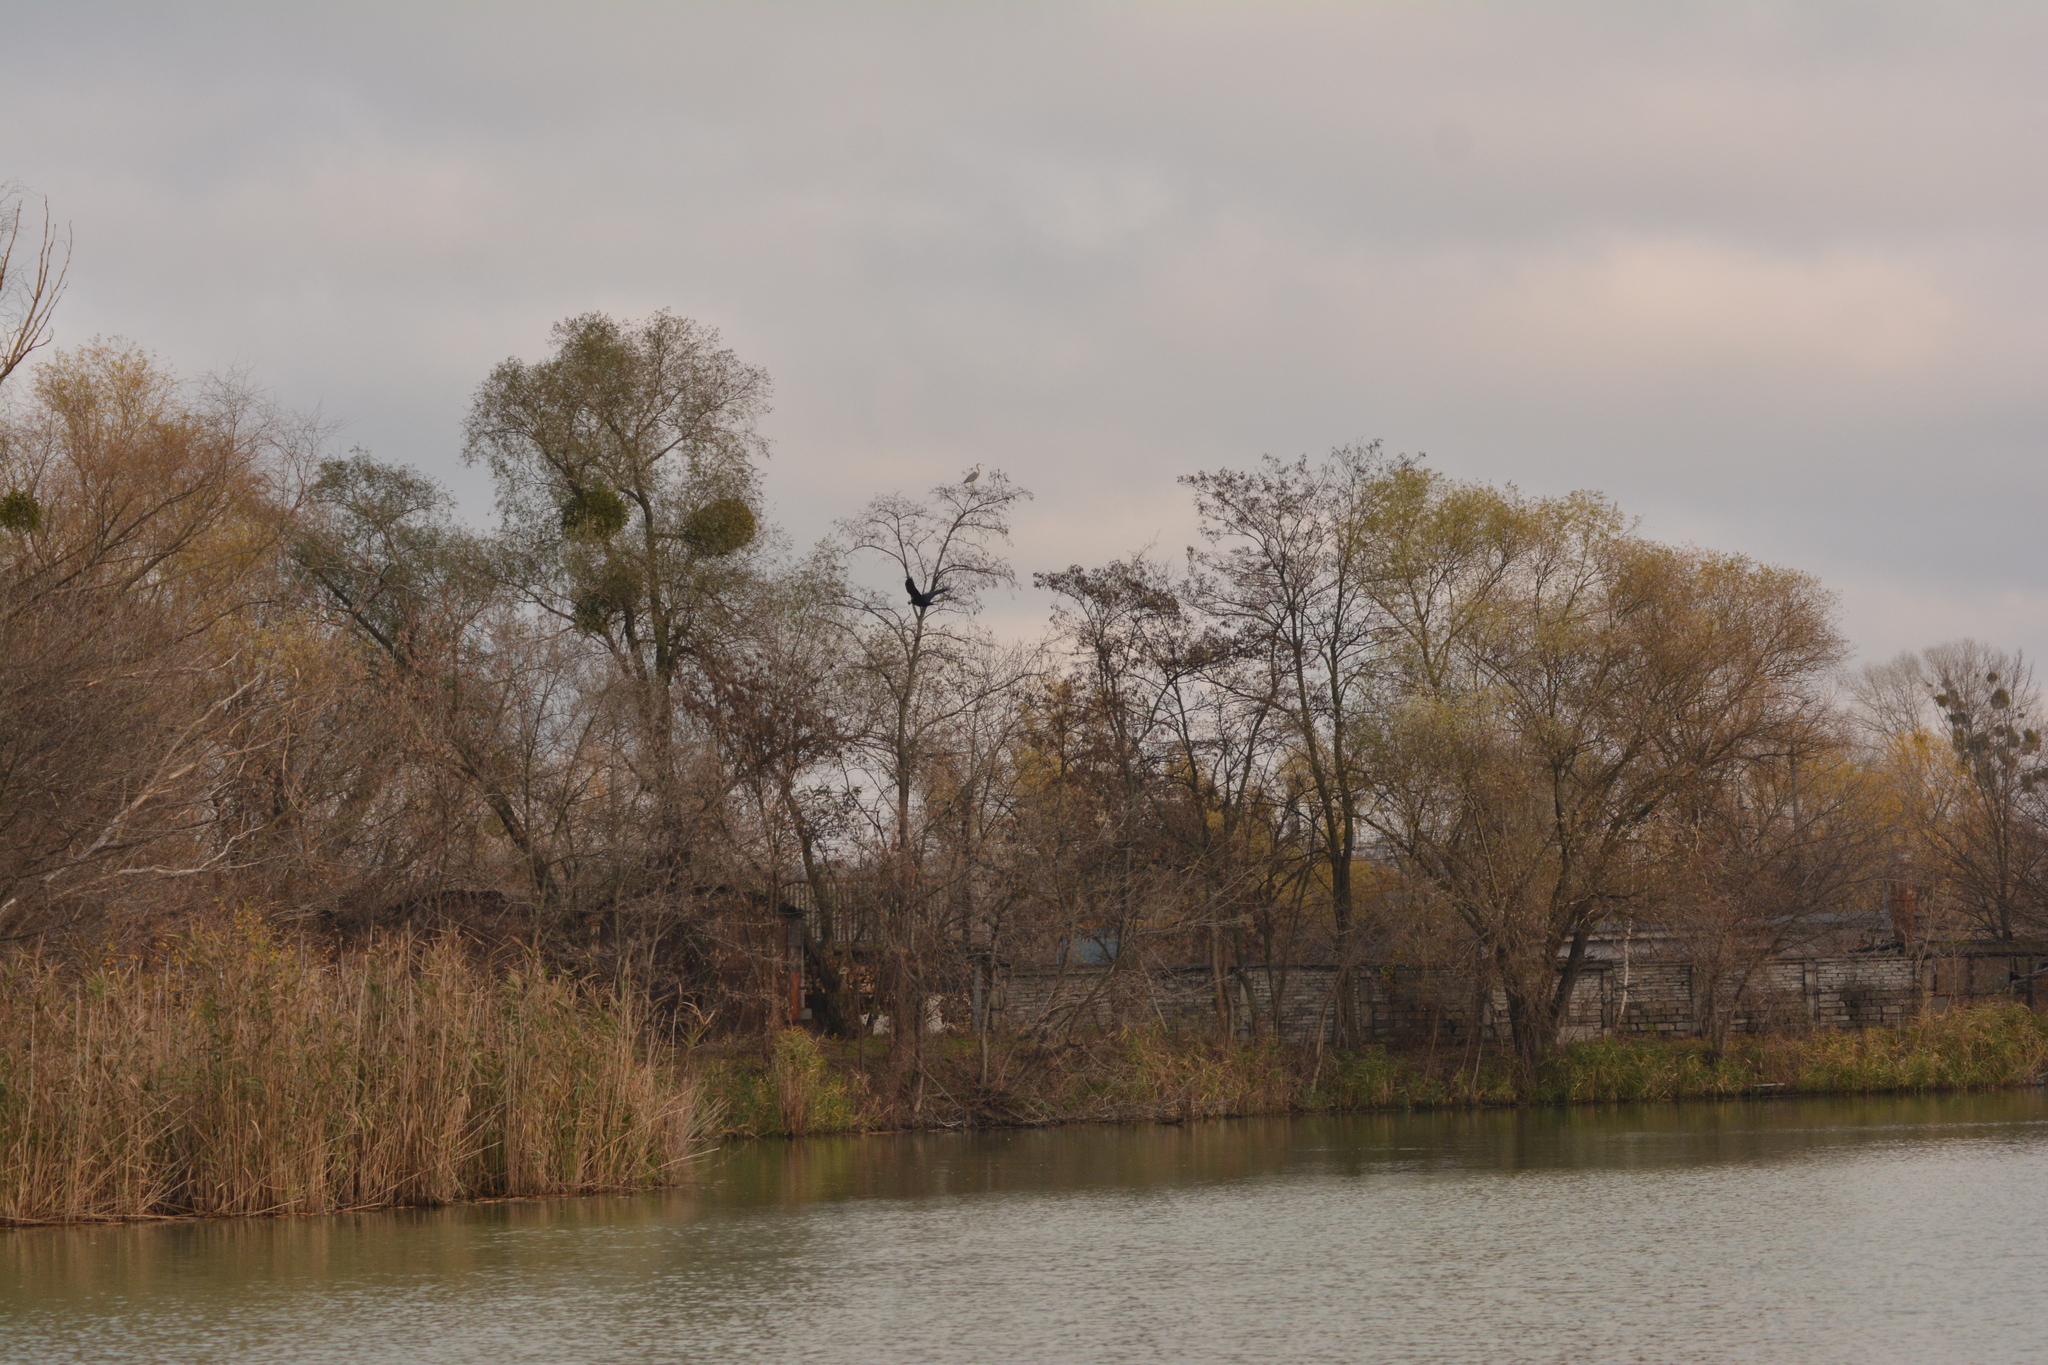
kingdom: Animalia
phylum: Chordata
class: Aves
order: Pelecaniformes
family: Ardeidae
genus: Ardea
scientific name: Ardea cinerea
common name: Grey heron
